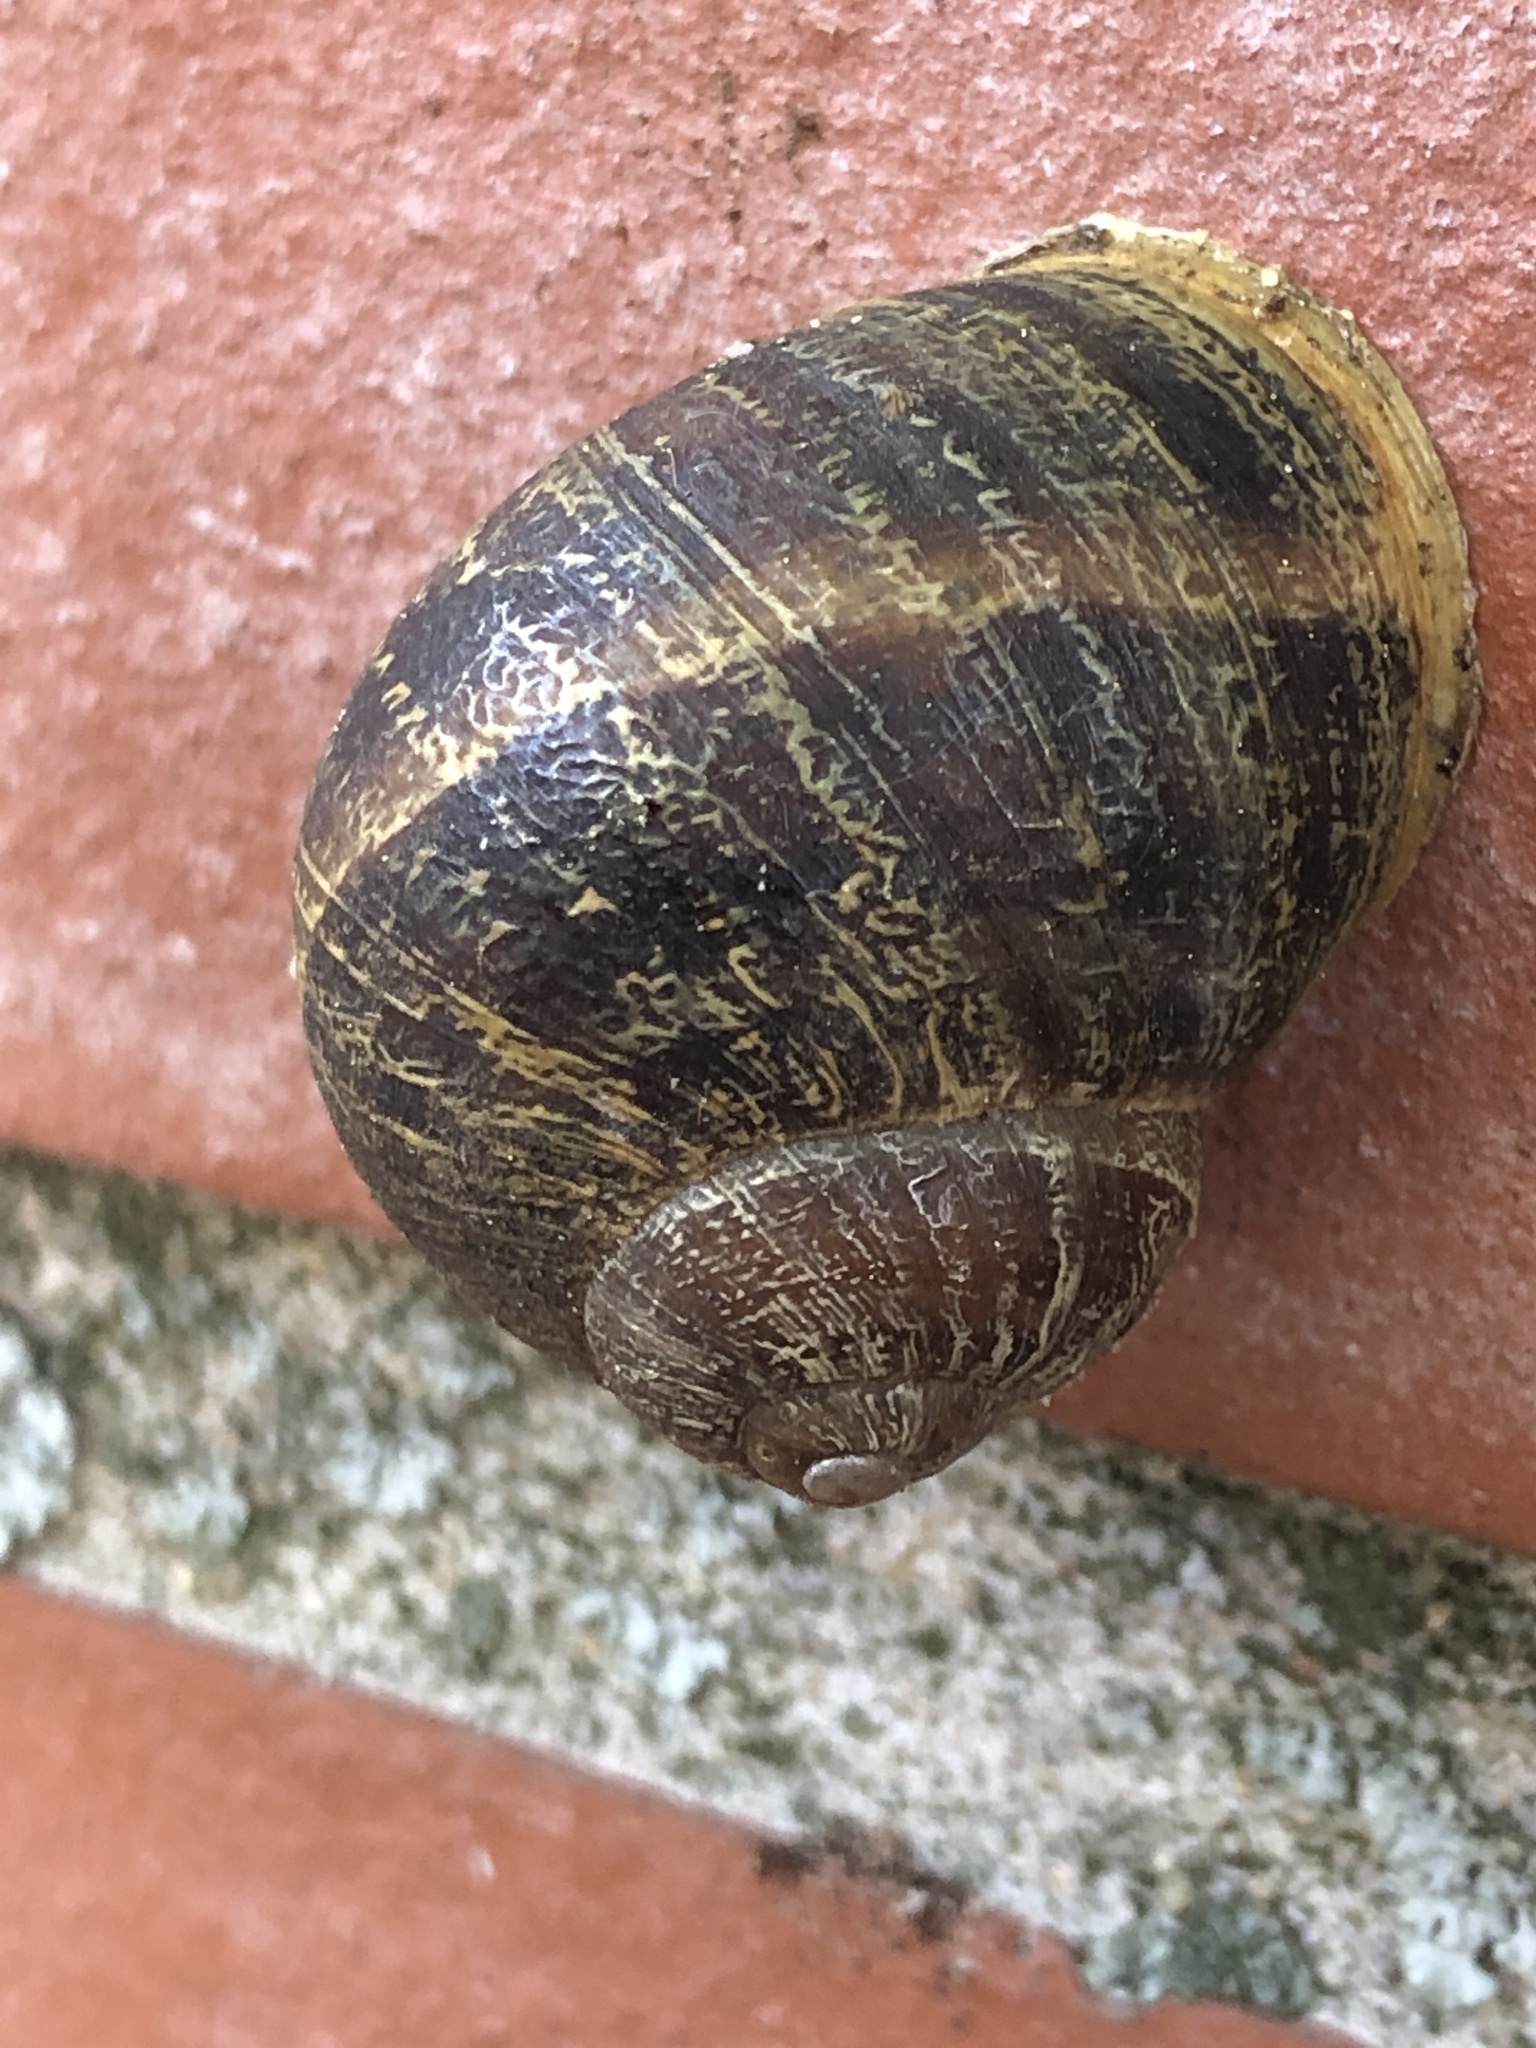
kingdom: Animalia
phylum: Mollusca
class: Gastropoda
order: Stylommatophora
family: Helicidae
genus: Cornu
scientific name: Cornu aspersum
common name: Brown garden snail
